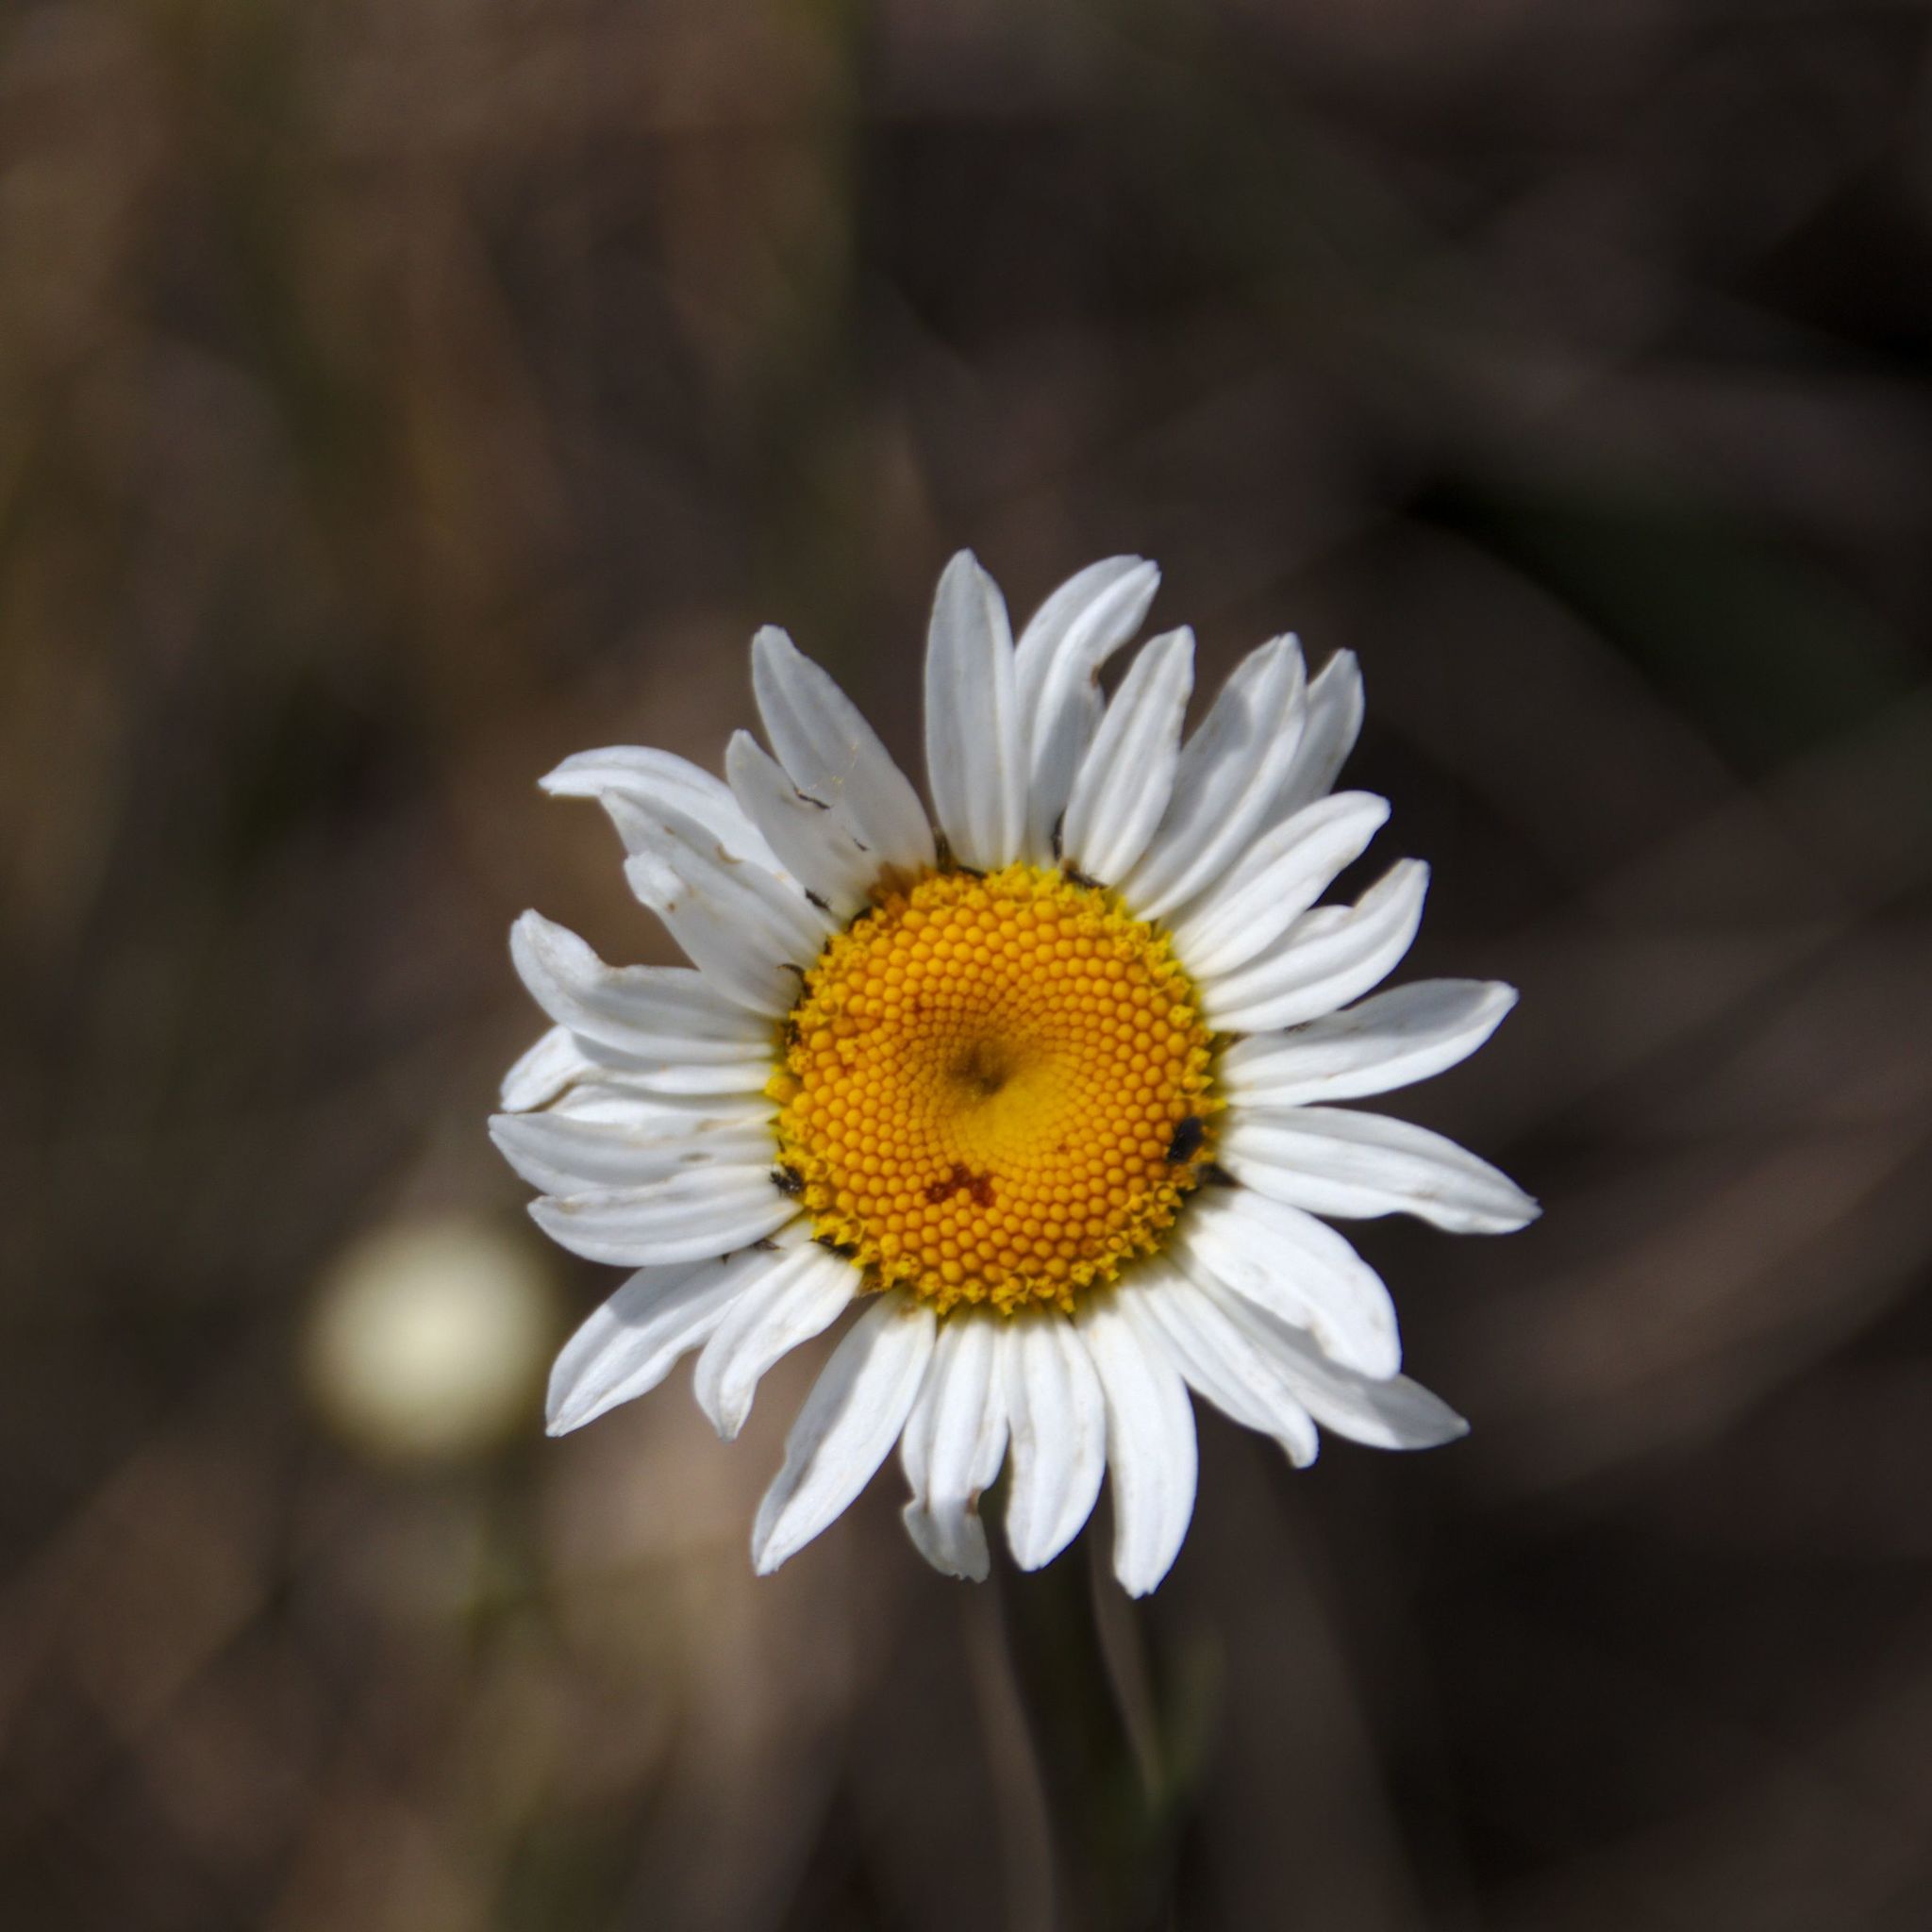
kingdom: Plantae
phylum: Tracheophyta
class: Magnoliopsida
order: Asterales
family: Asteraceae
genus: Leucanthemum
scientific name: Leucanthemum vulgare
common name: Oxeye daisy
